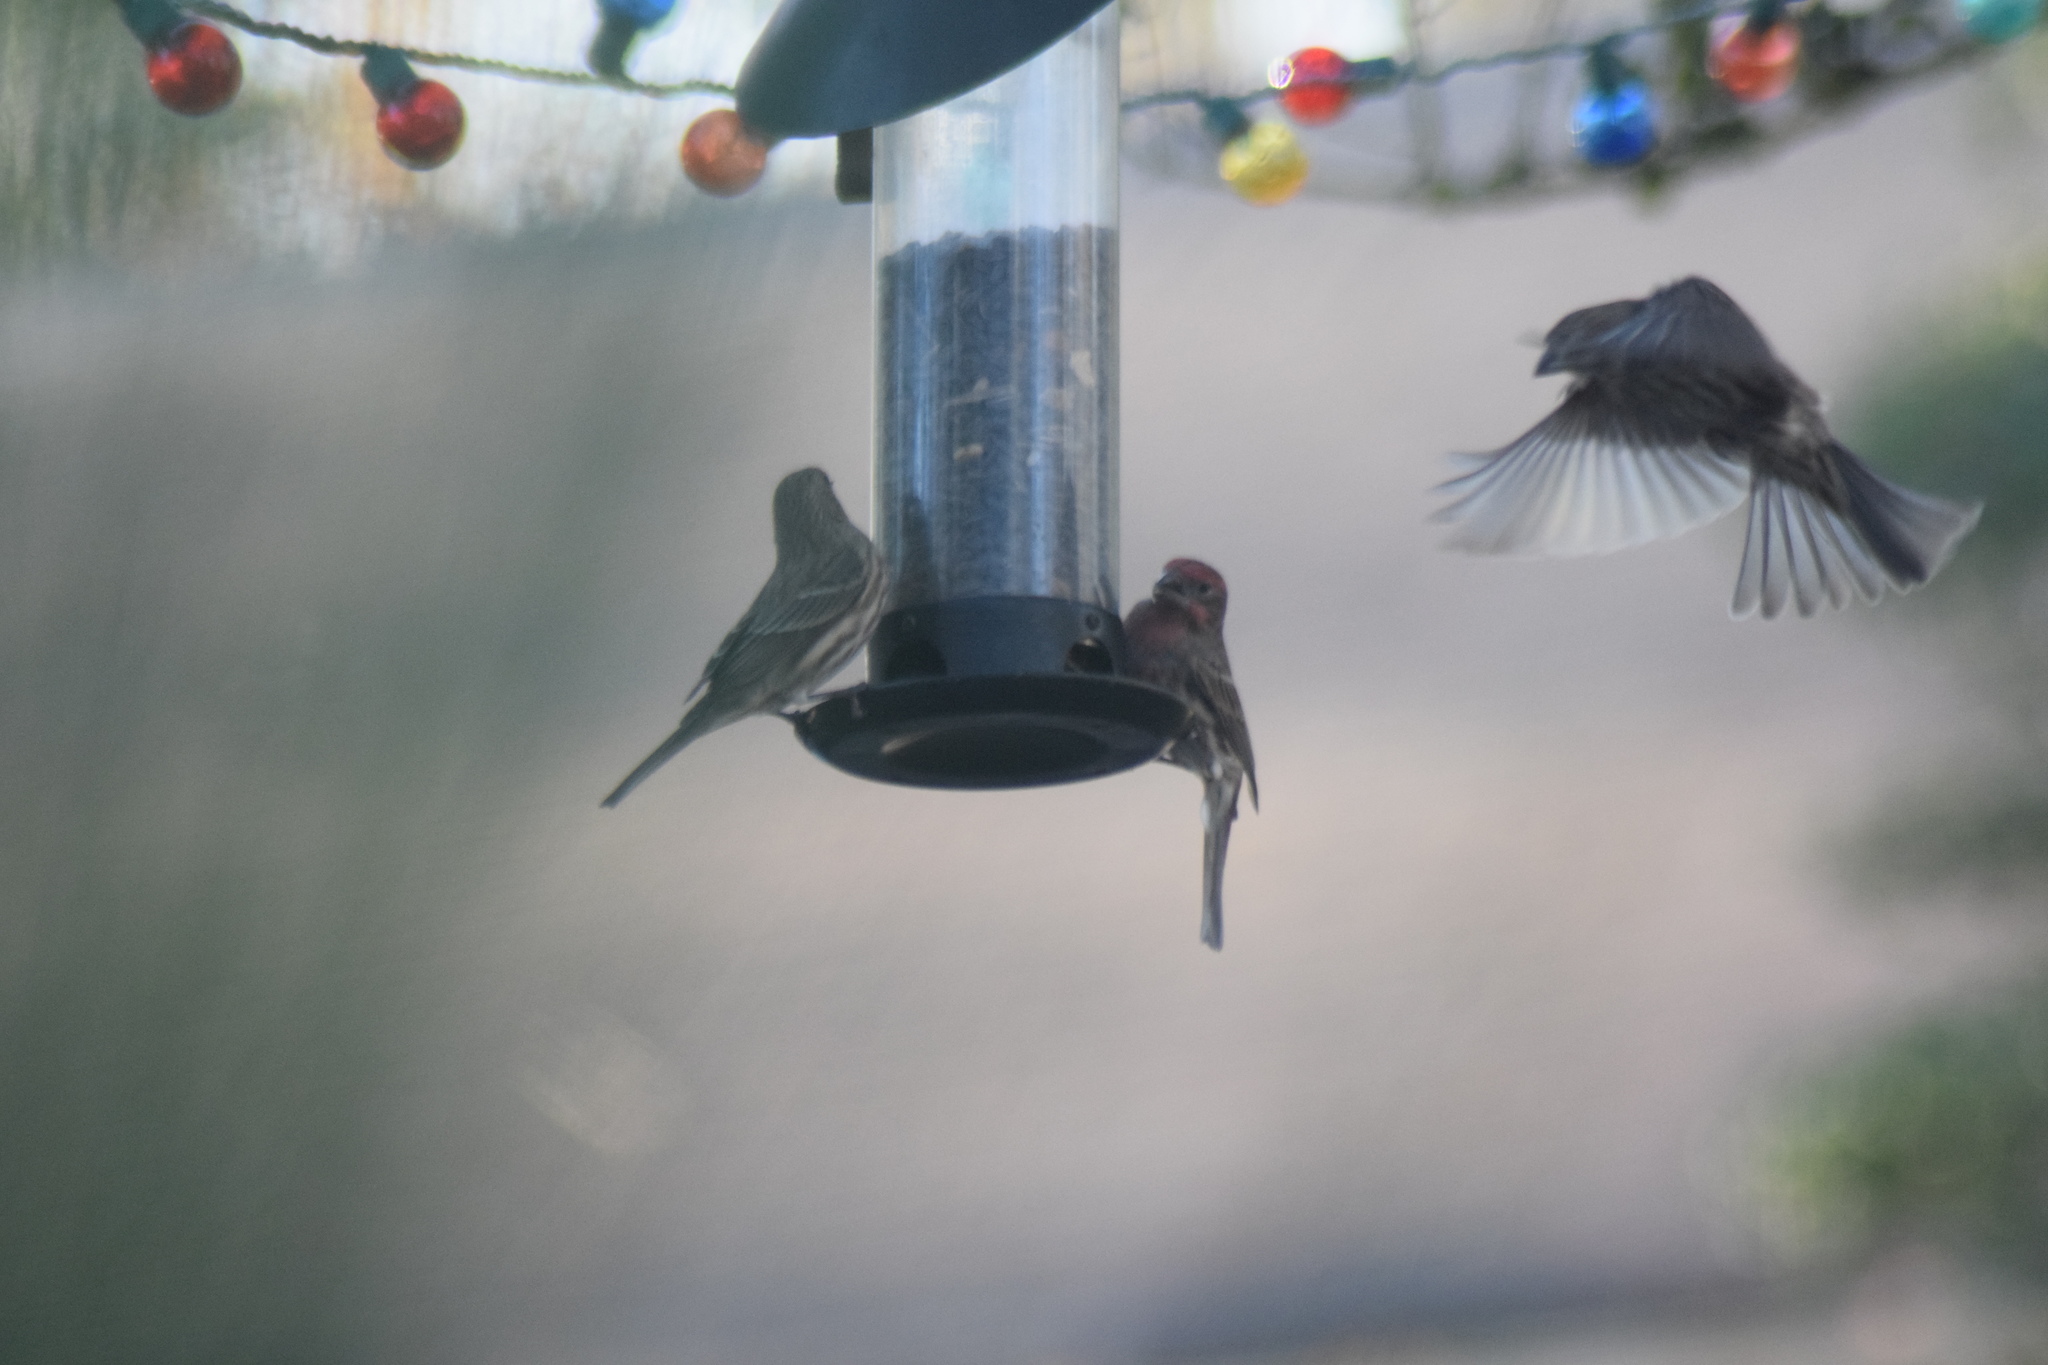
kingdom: Animalia
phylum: Chordata
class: Aves
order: Passeriformes
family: Fringillidae
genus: Haemorhous
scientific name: Haemorhous mexicanus
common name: House finch
